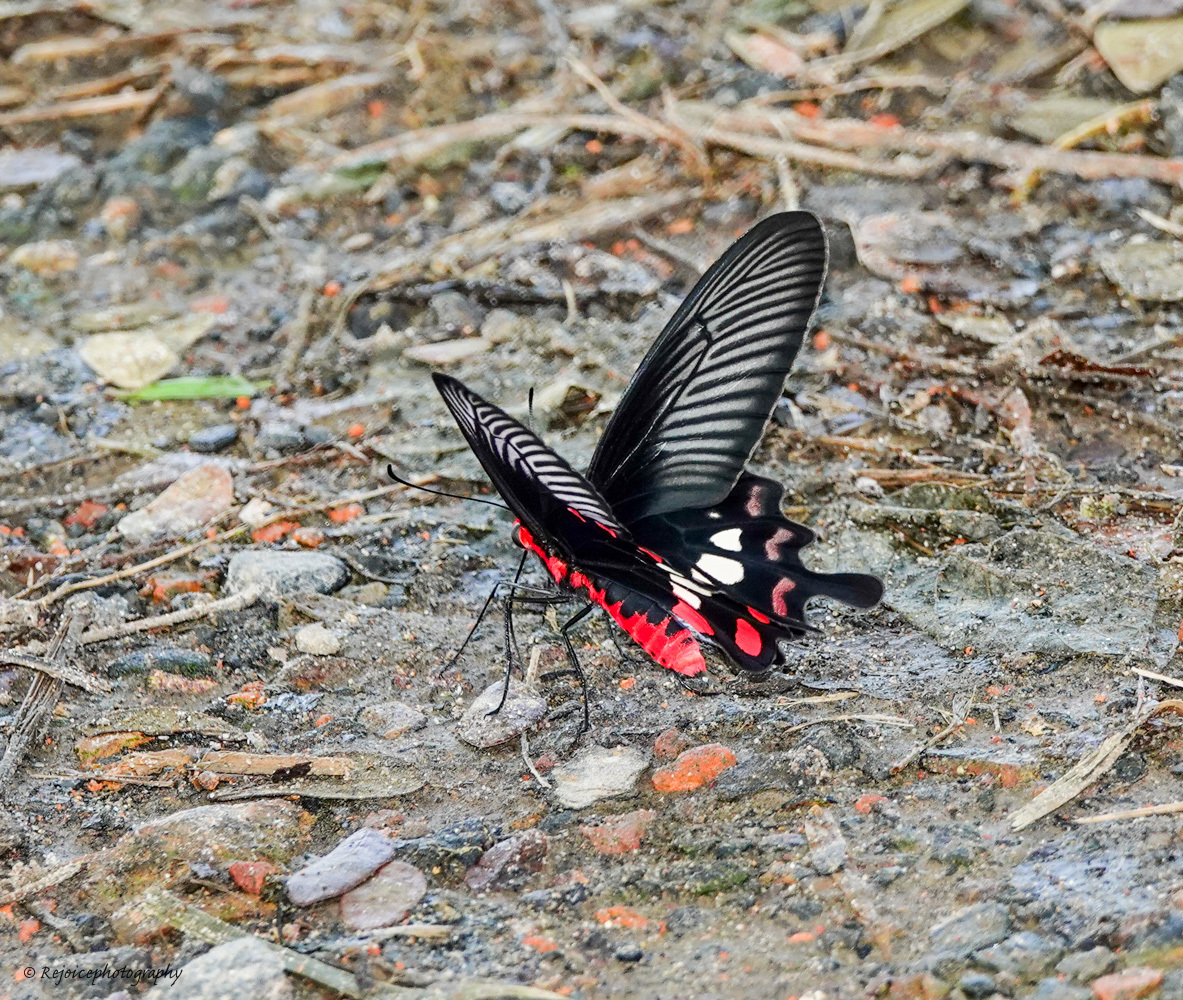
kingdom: Animalia
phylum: Arthropoda
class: Insecta
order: Lepidoptera
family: Papilionidae
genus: Pachliopta
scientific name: Pachliopta aristolochiae
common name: Common rose
